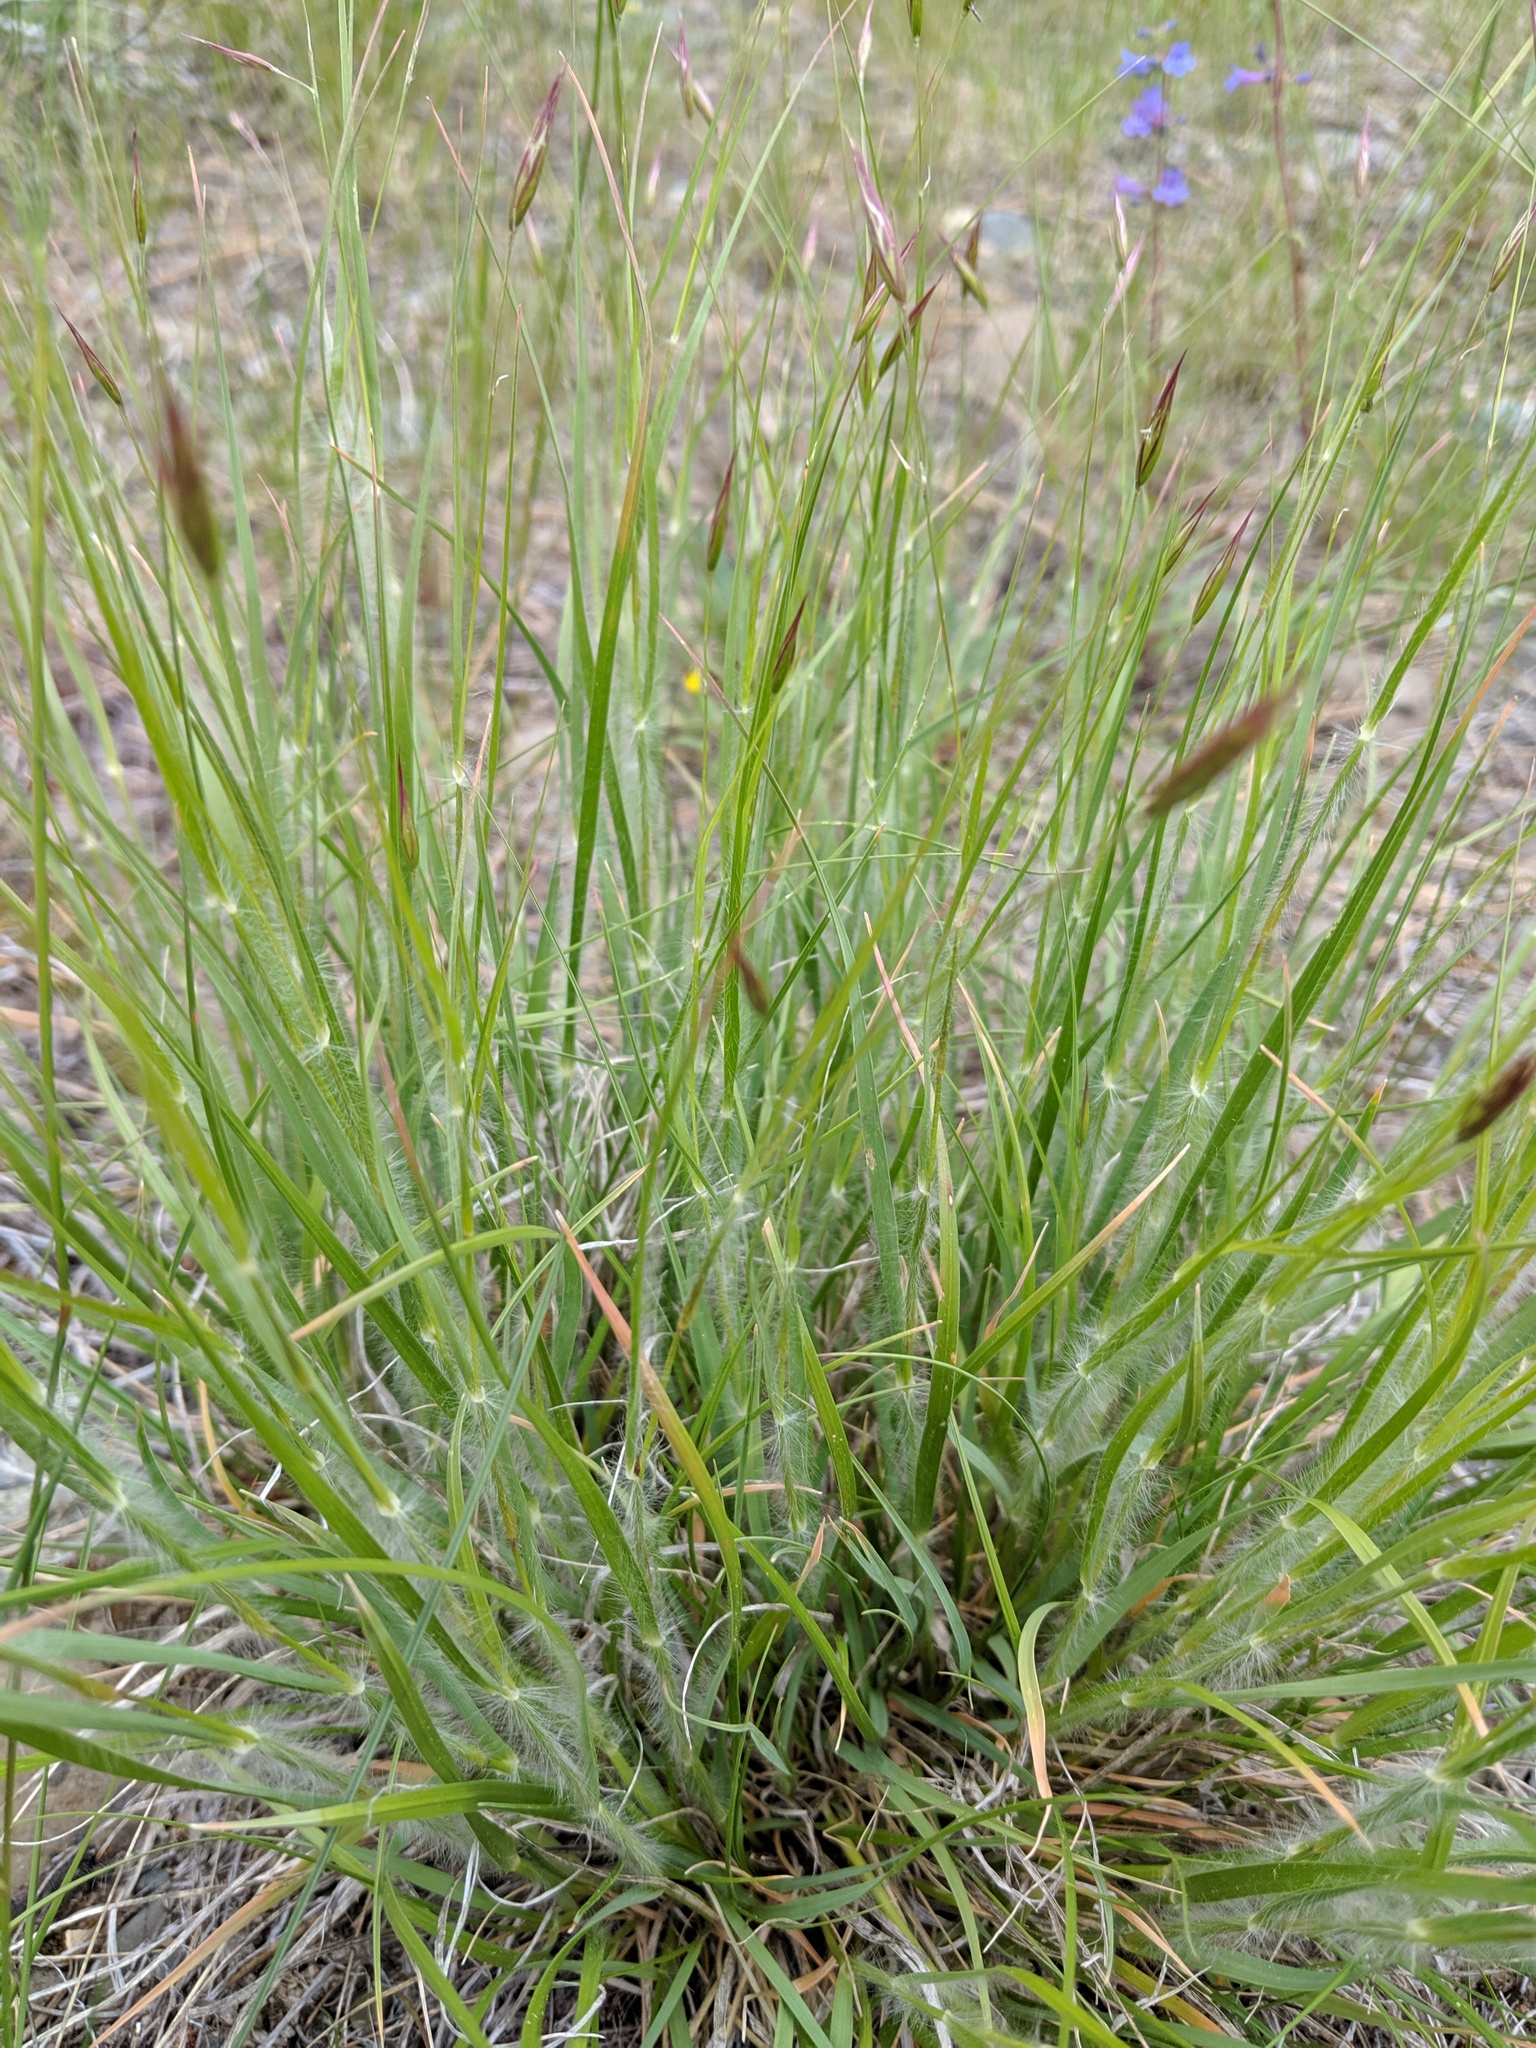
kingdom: Plantae
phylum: Tracheophyta
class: Liliopsida
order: Poales
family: Cyperaceae
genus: Carex
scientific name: Carex geyeri
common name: Elk sedge
